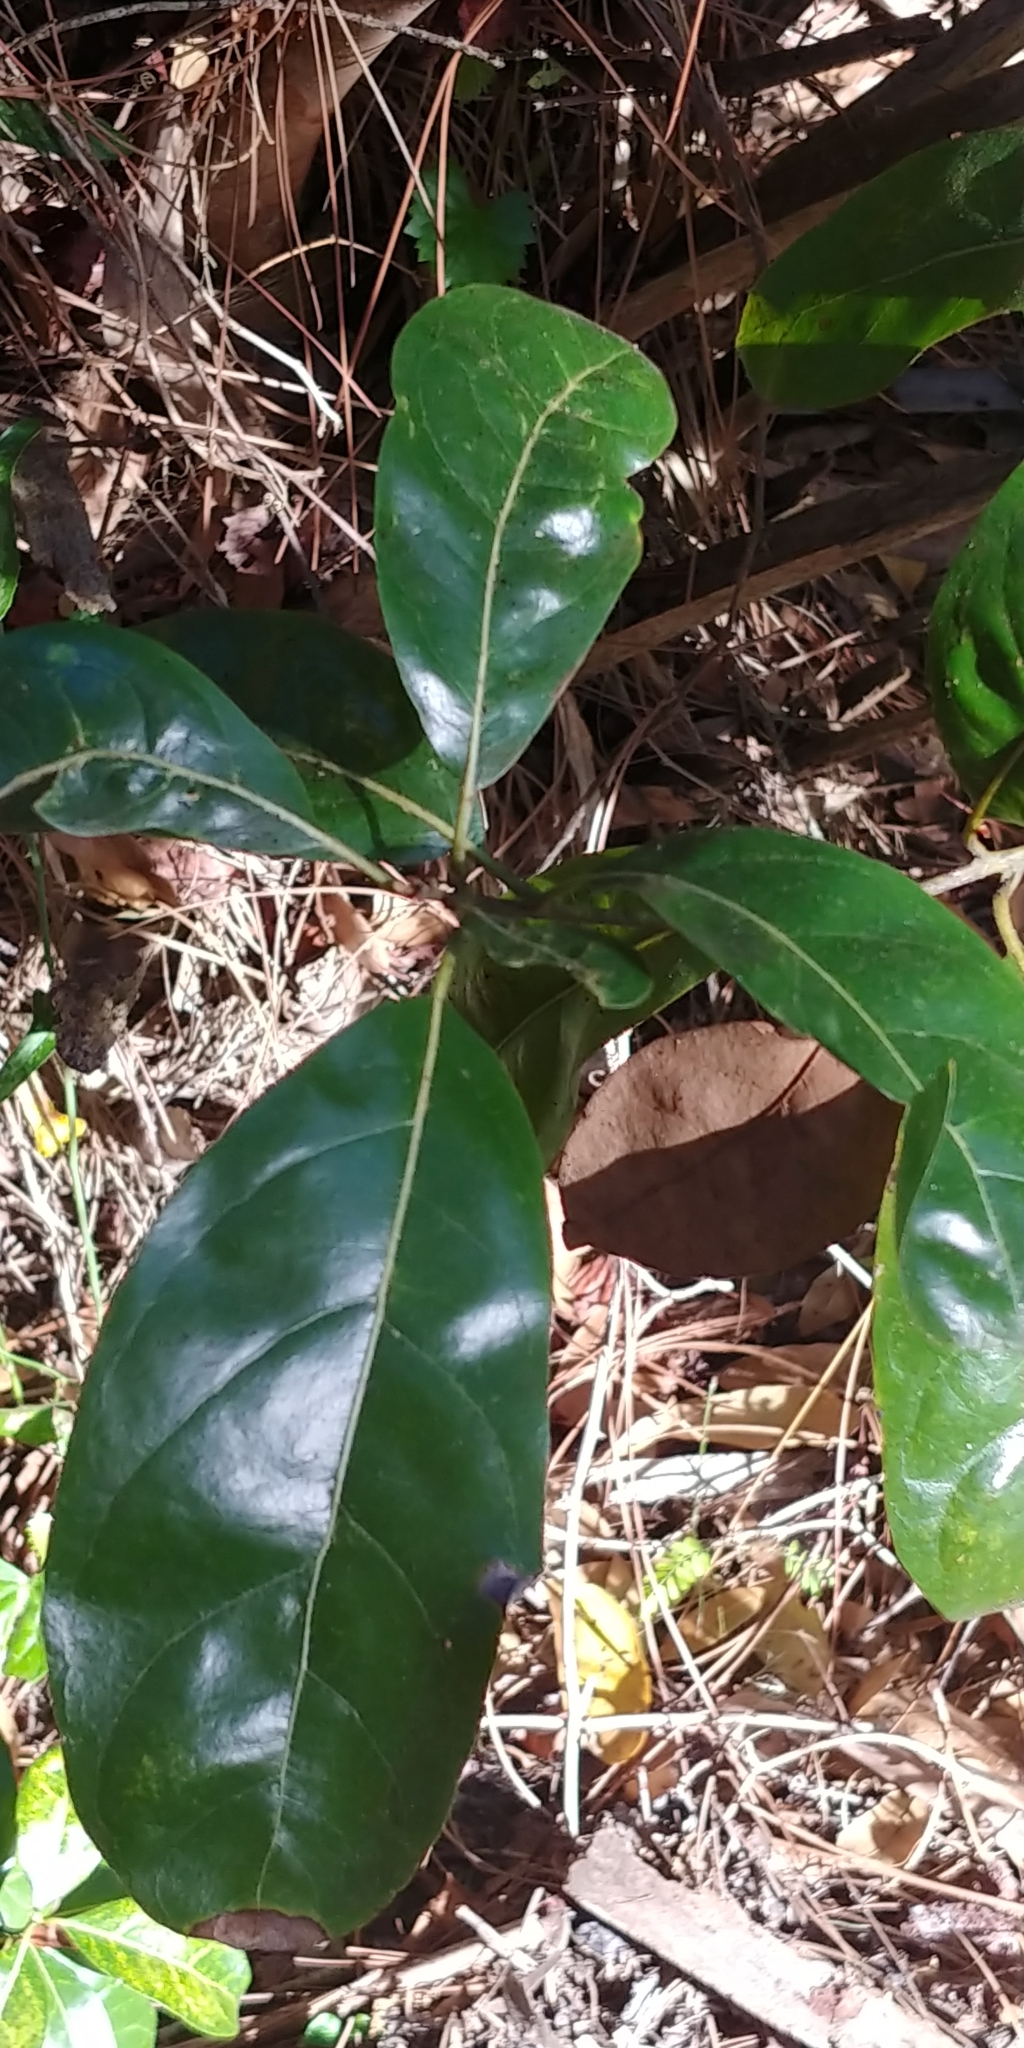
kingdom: Plantae
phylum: Tracheophyta
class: Magnoliopsida
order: Magnoliales
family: Magnoliaceae
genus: Magnolia
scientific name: Magnolia grandiflora
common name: Southern magnolia
